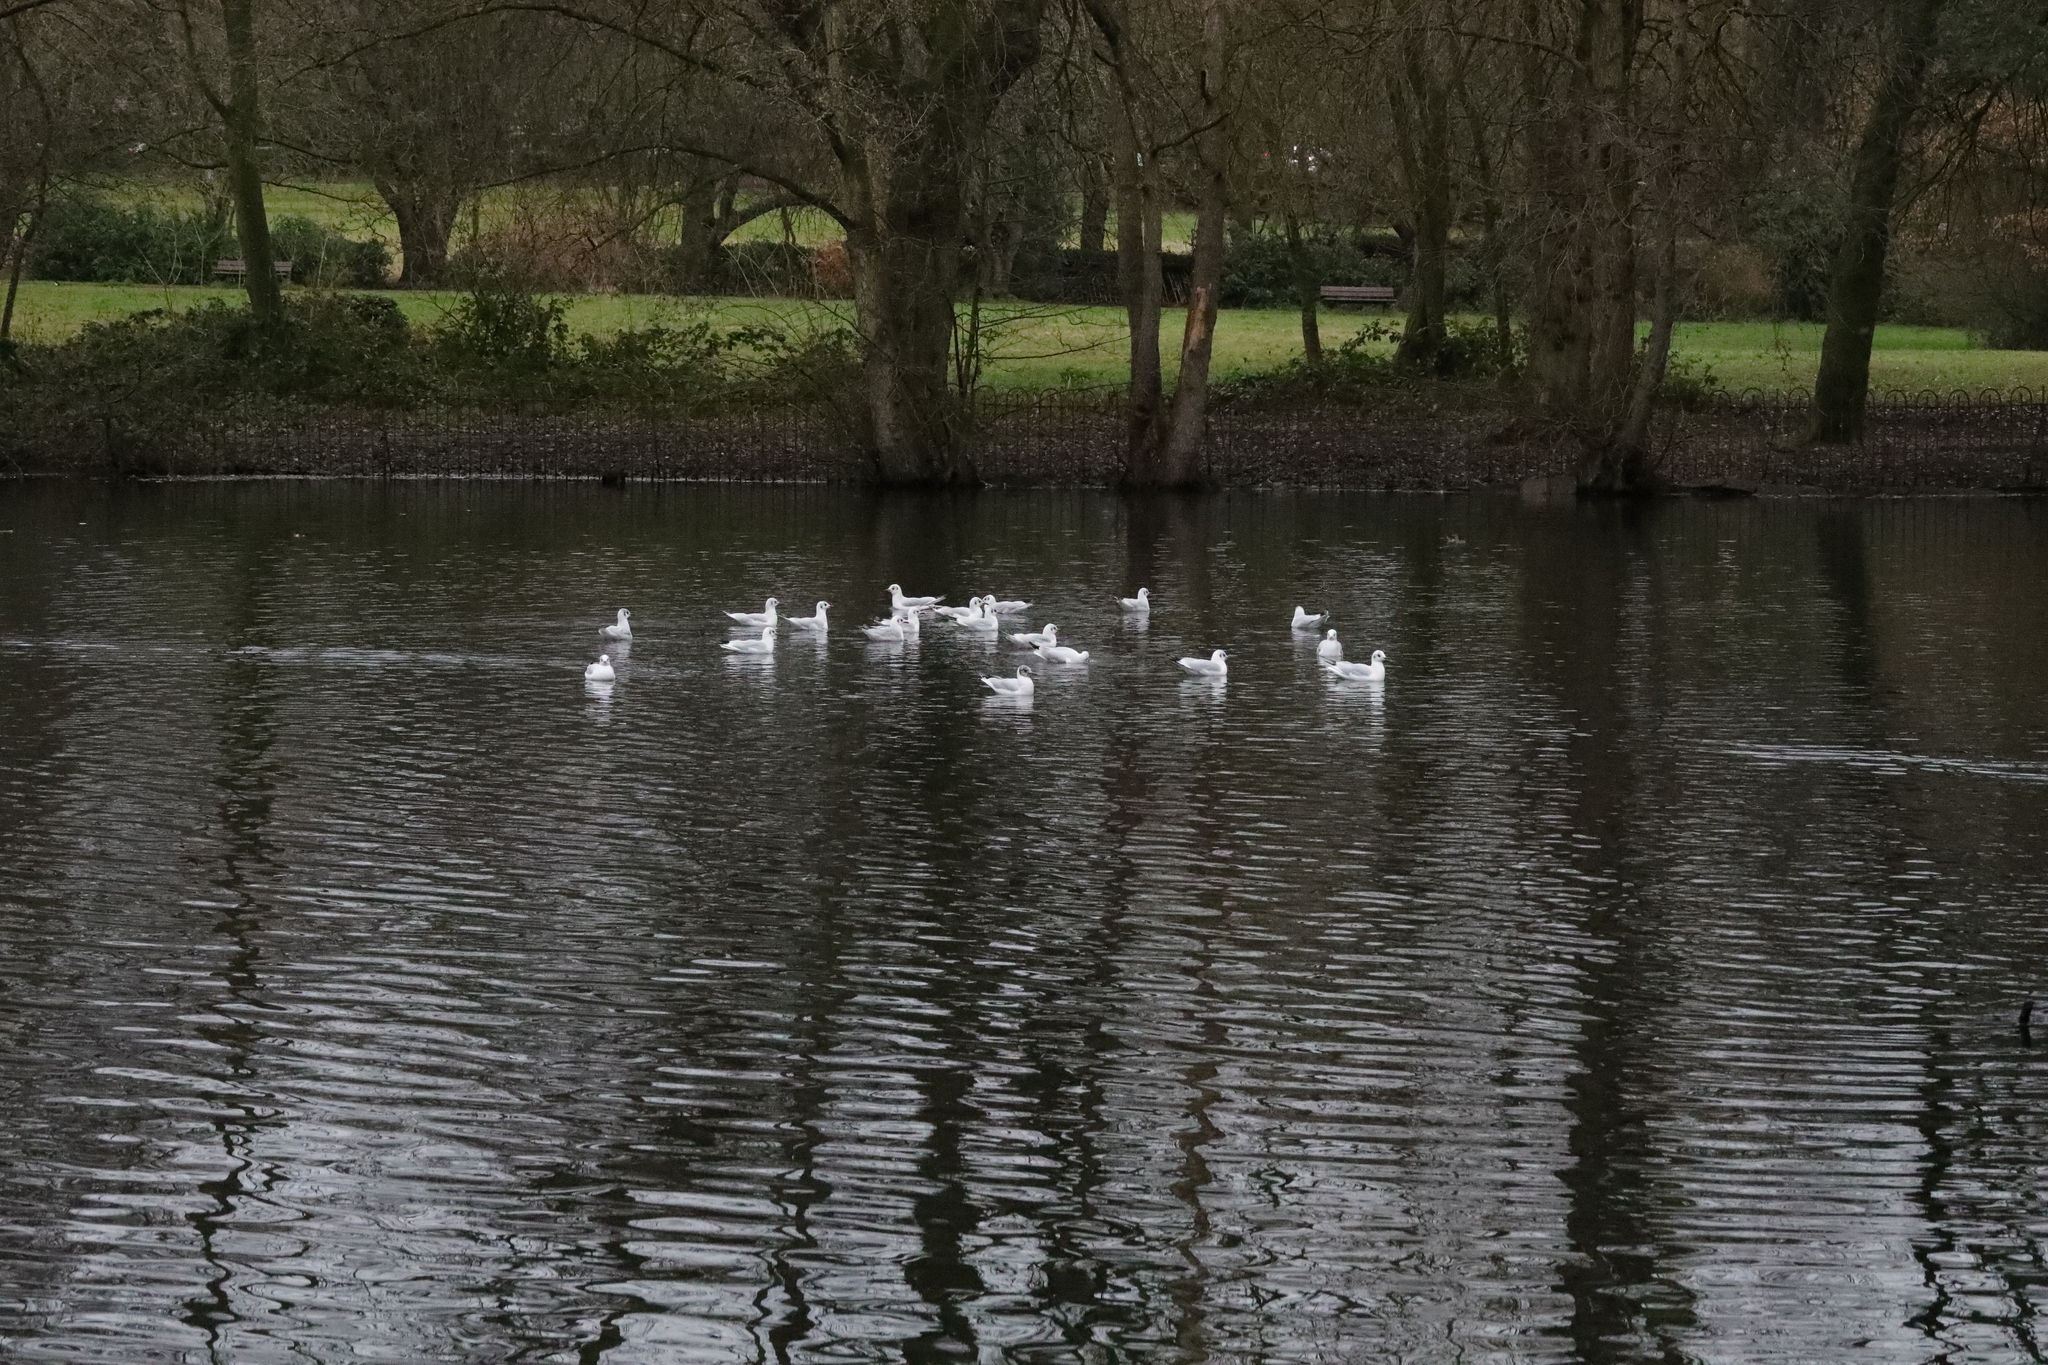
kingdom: Animalia
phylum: Chordata
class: Aves
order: Charadriiformes
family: Laridae
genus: Chroicocephalus
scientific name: Chroicocephalus ridibundus
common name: Black-headed gull
